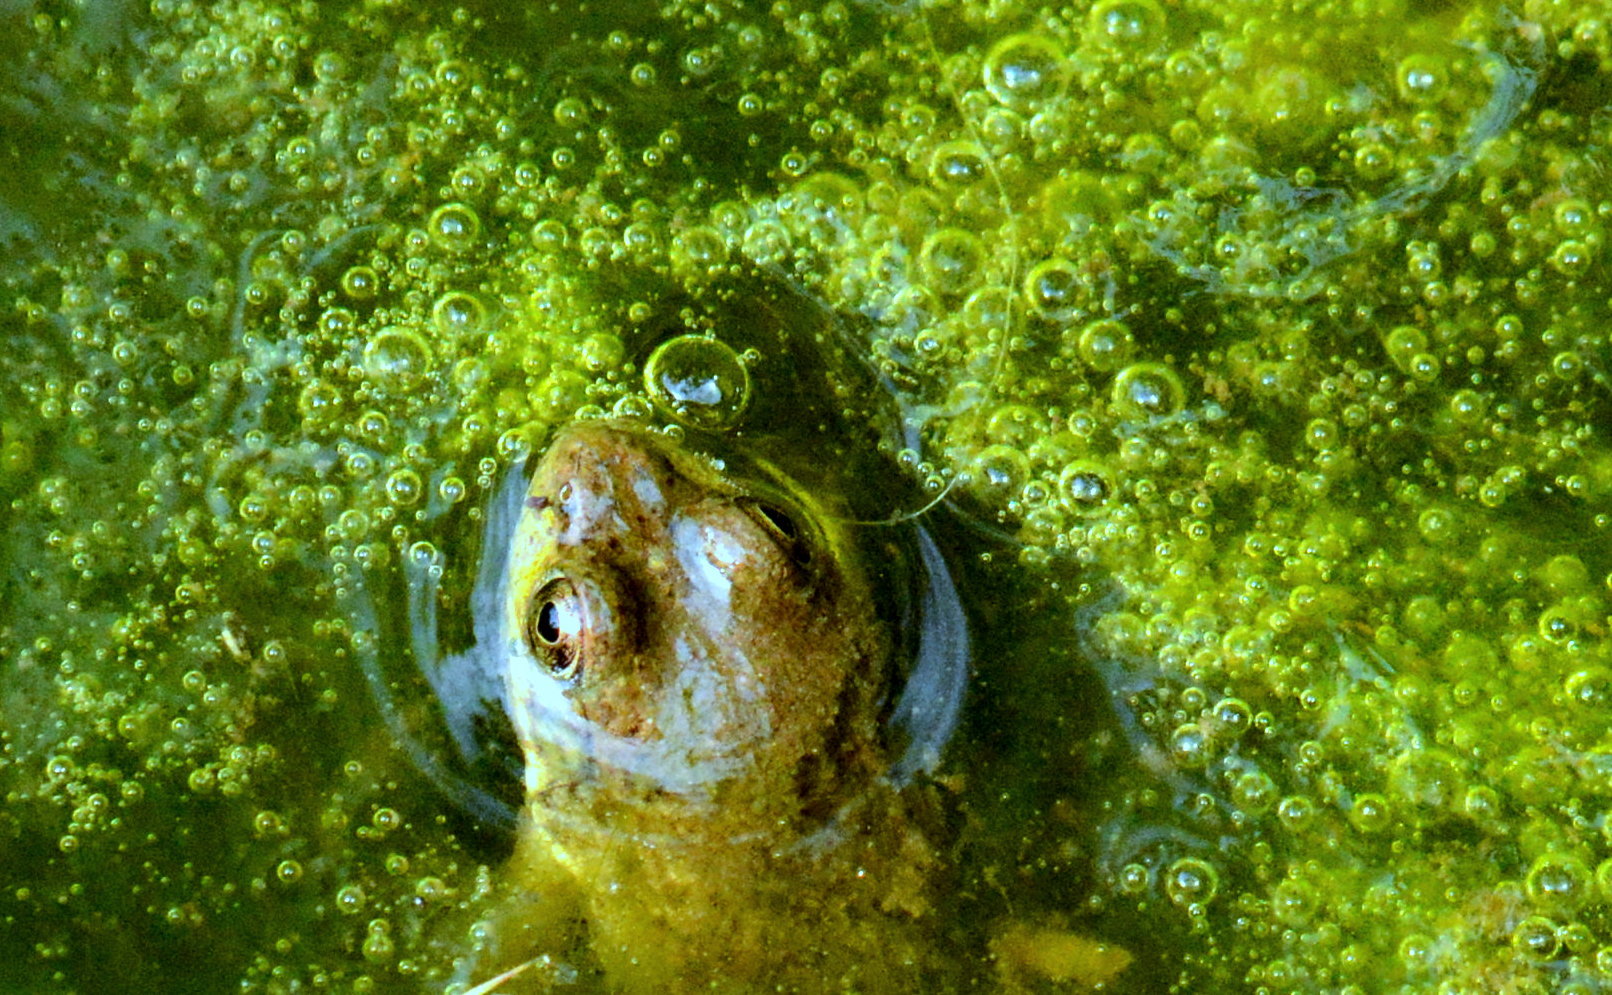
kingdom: Animalia
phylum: Chordata
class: Amphibia
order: Anura
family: Ranidae
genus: Lithobates
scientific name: Lithobates clamitans
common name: Green frog
